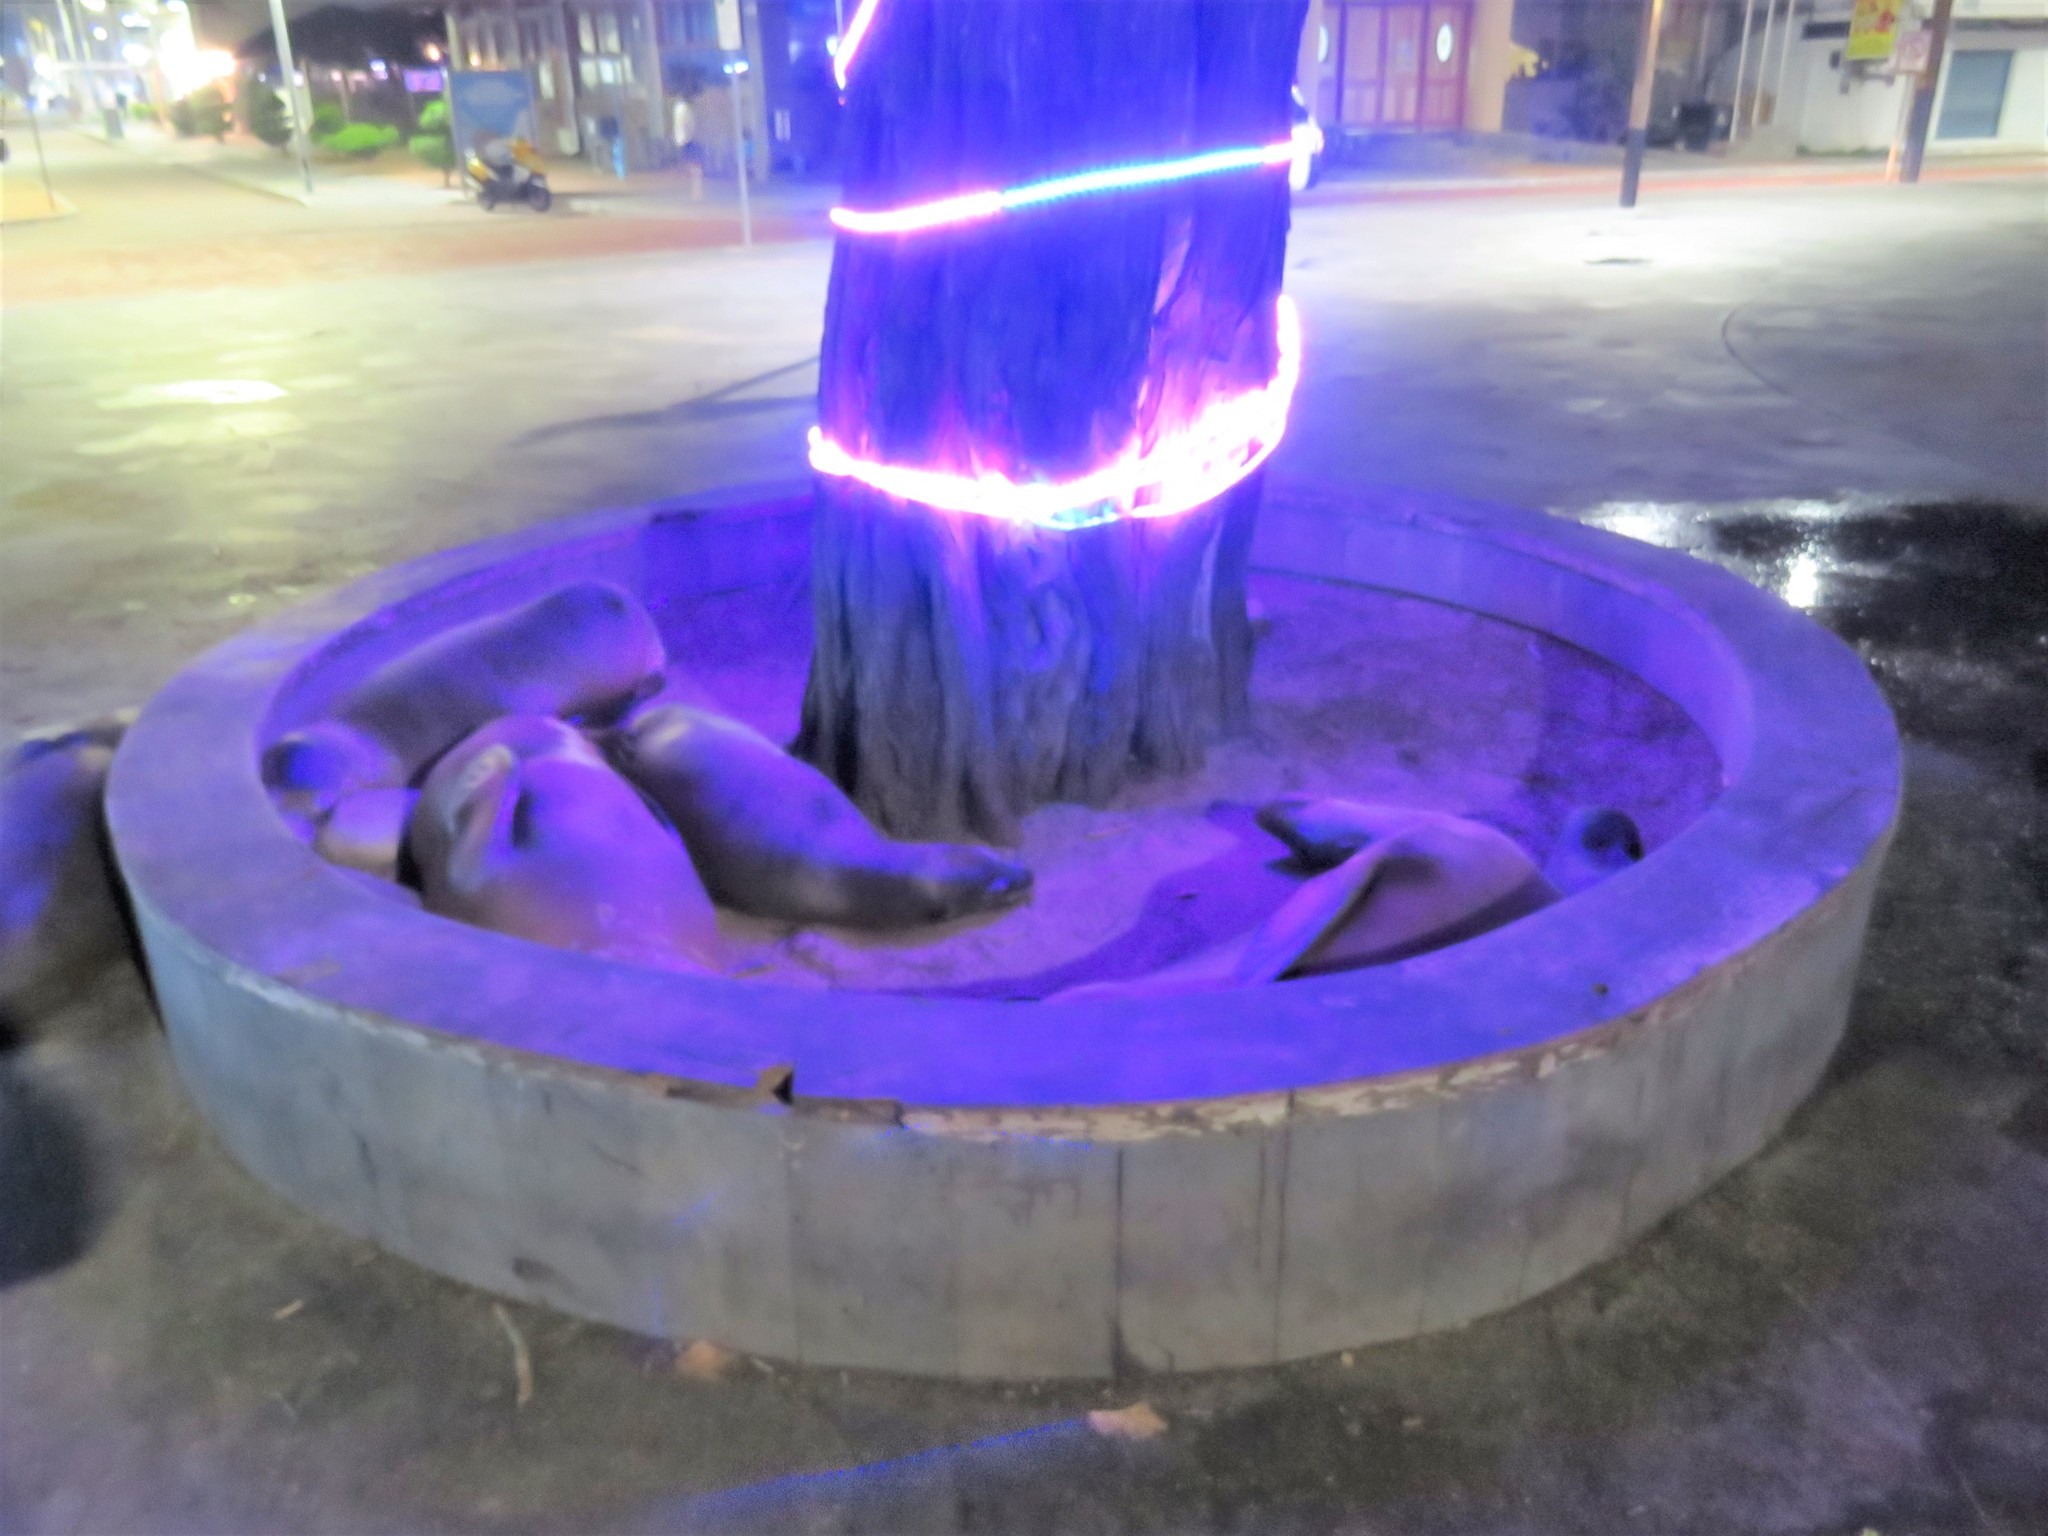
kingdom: Animalia
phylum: Chordata
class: Mammalia
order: Carnivora
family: Otariidae
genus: Zalophus
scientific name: Zalophus wollebaeki
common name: Galapagos sea lion
